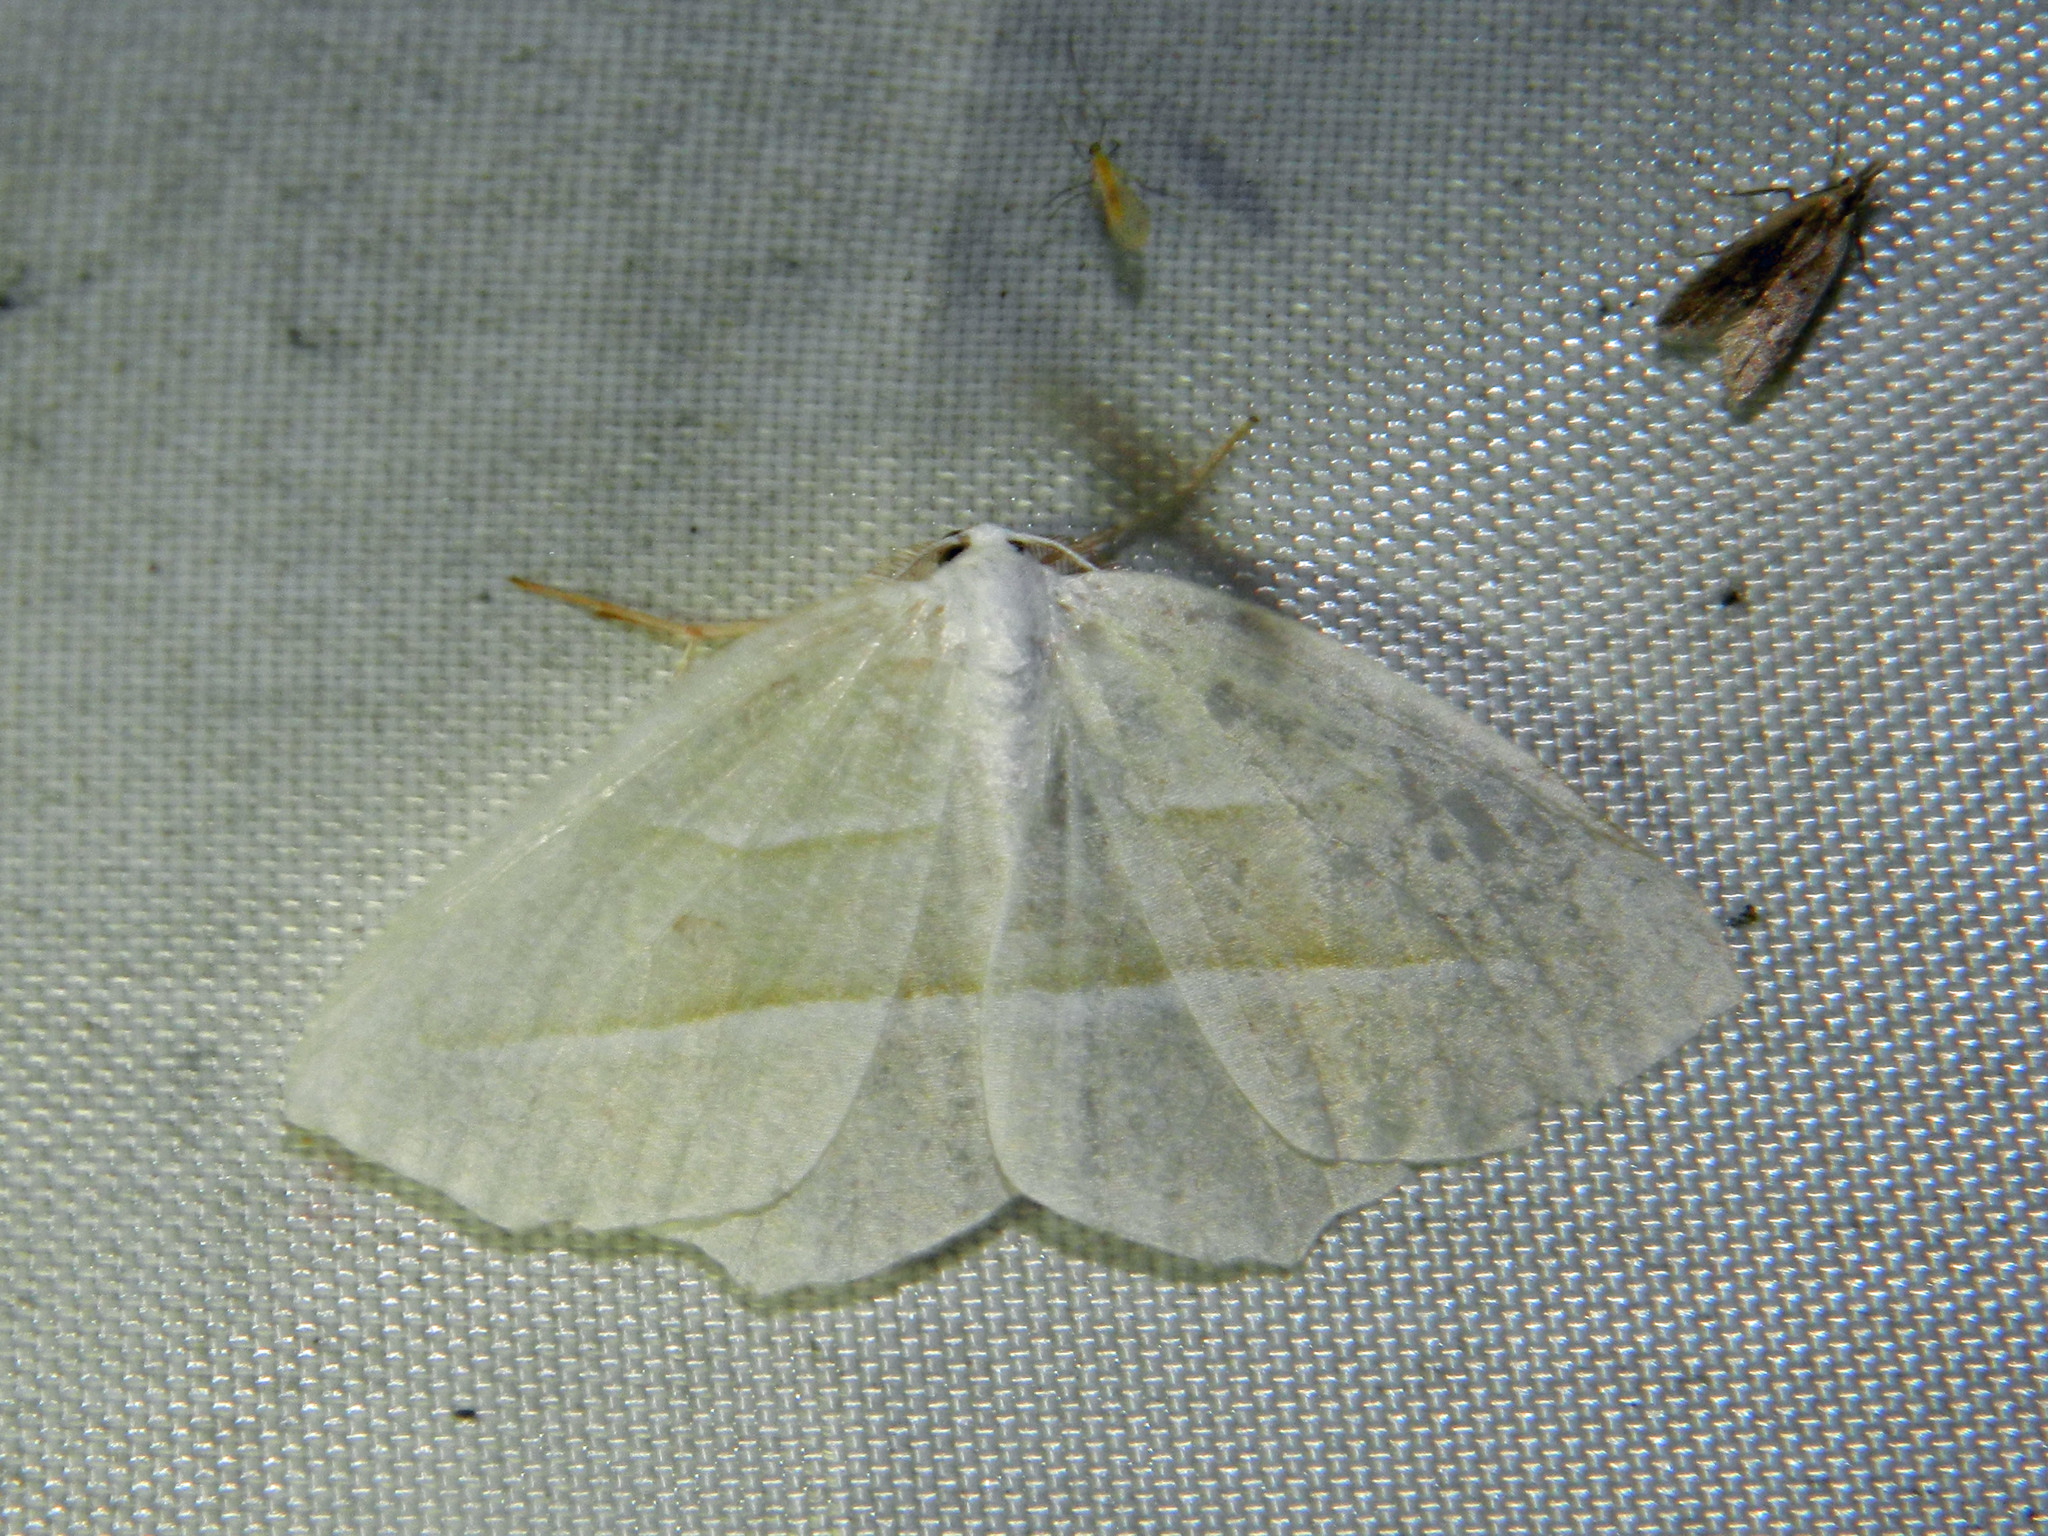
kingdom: Animalia
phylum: Arthropoda
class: Insecta
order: Lepidoptera
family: Geometridae
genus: Campaea
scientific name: Campaea perlata
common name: Fringed looper
